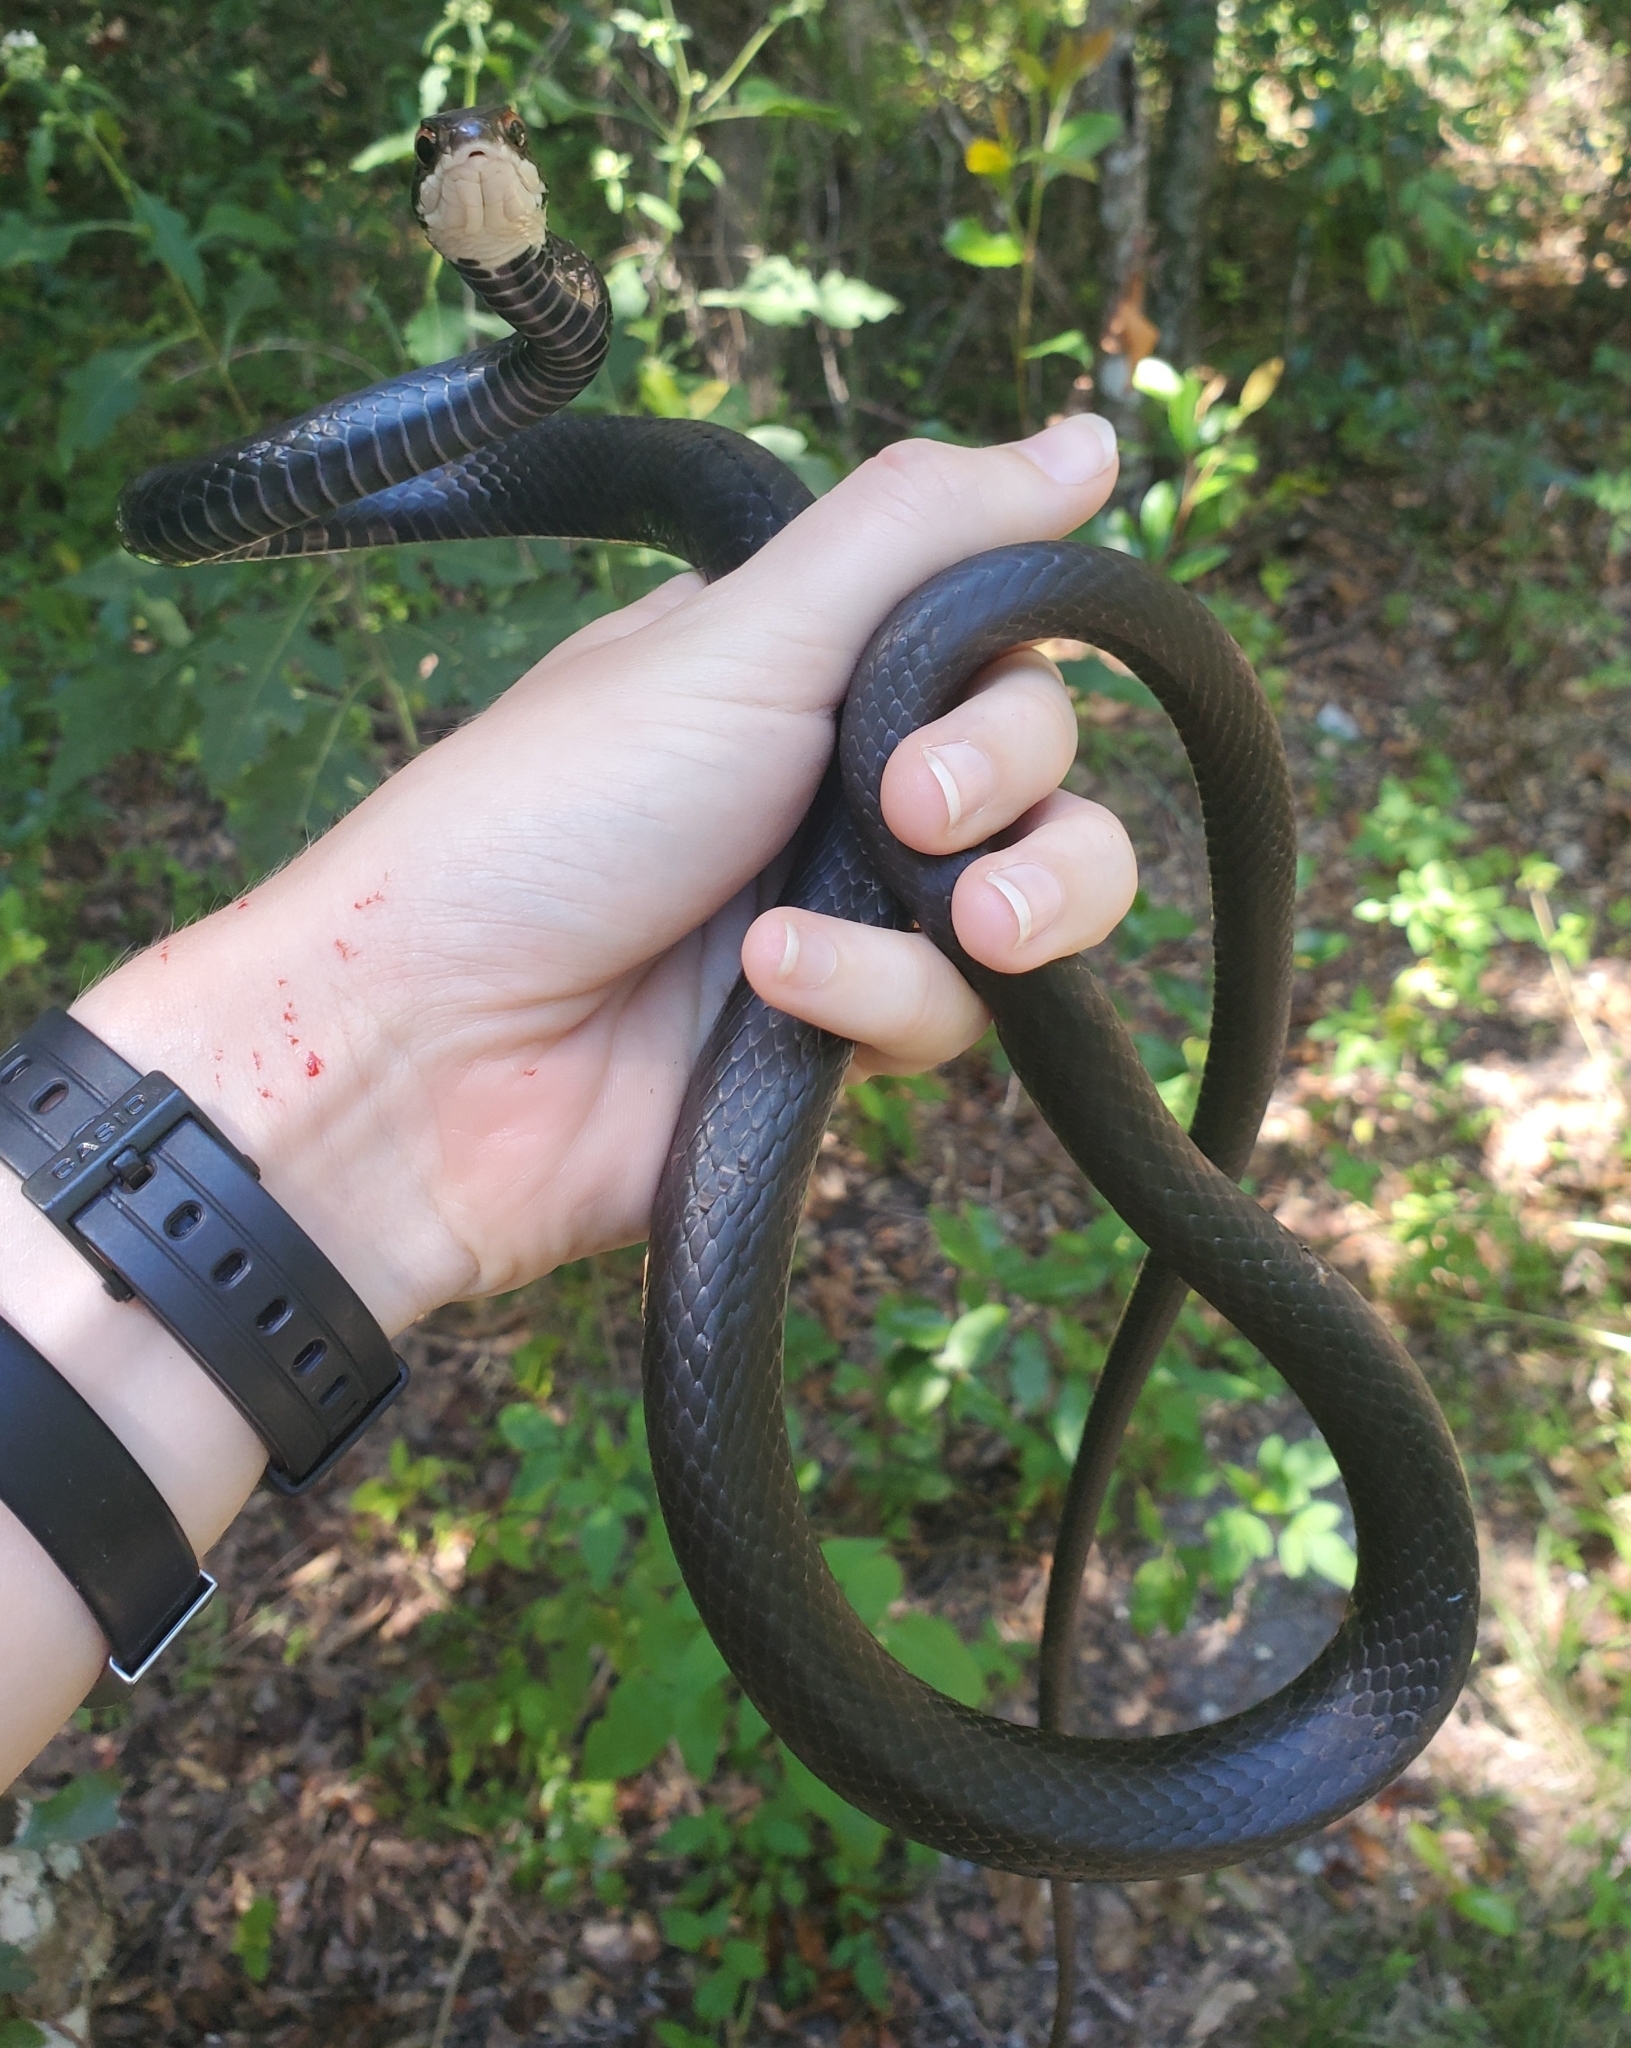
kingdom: Animalia
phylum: Chordata
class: Squamata
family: Colubridae
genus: Coluber
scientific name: Coluber constrictor
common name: Eastern racer
